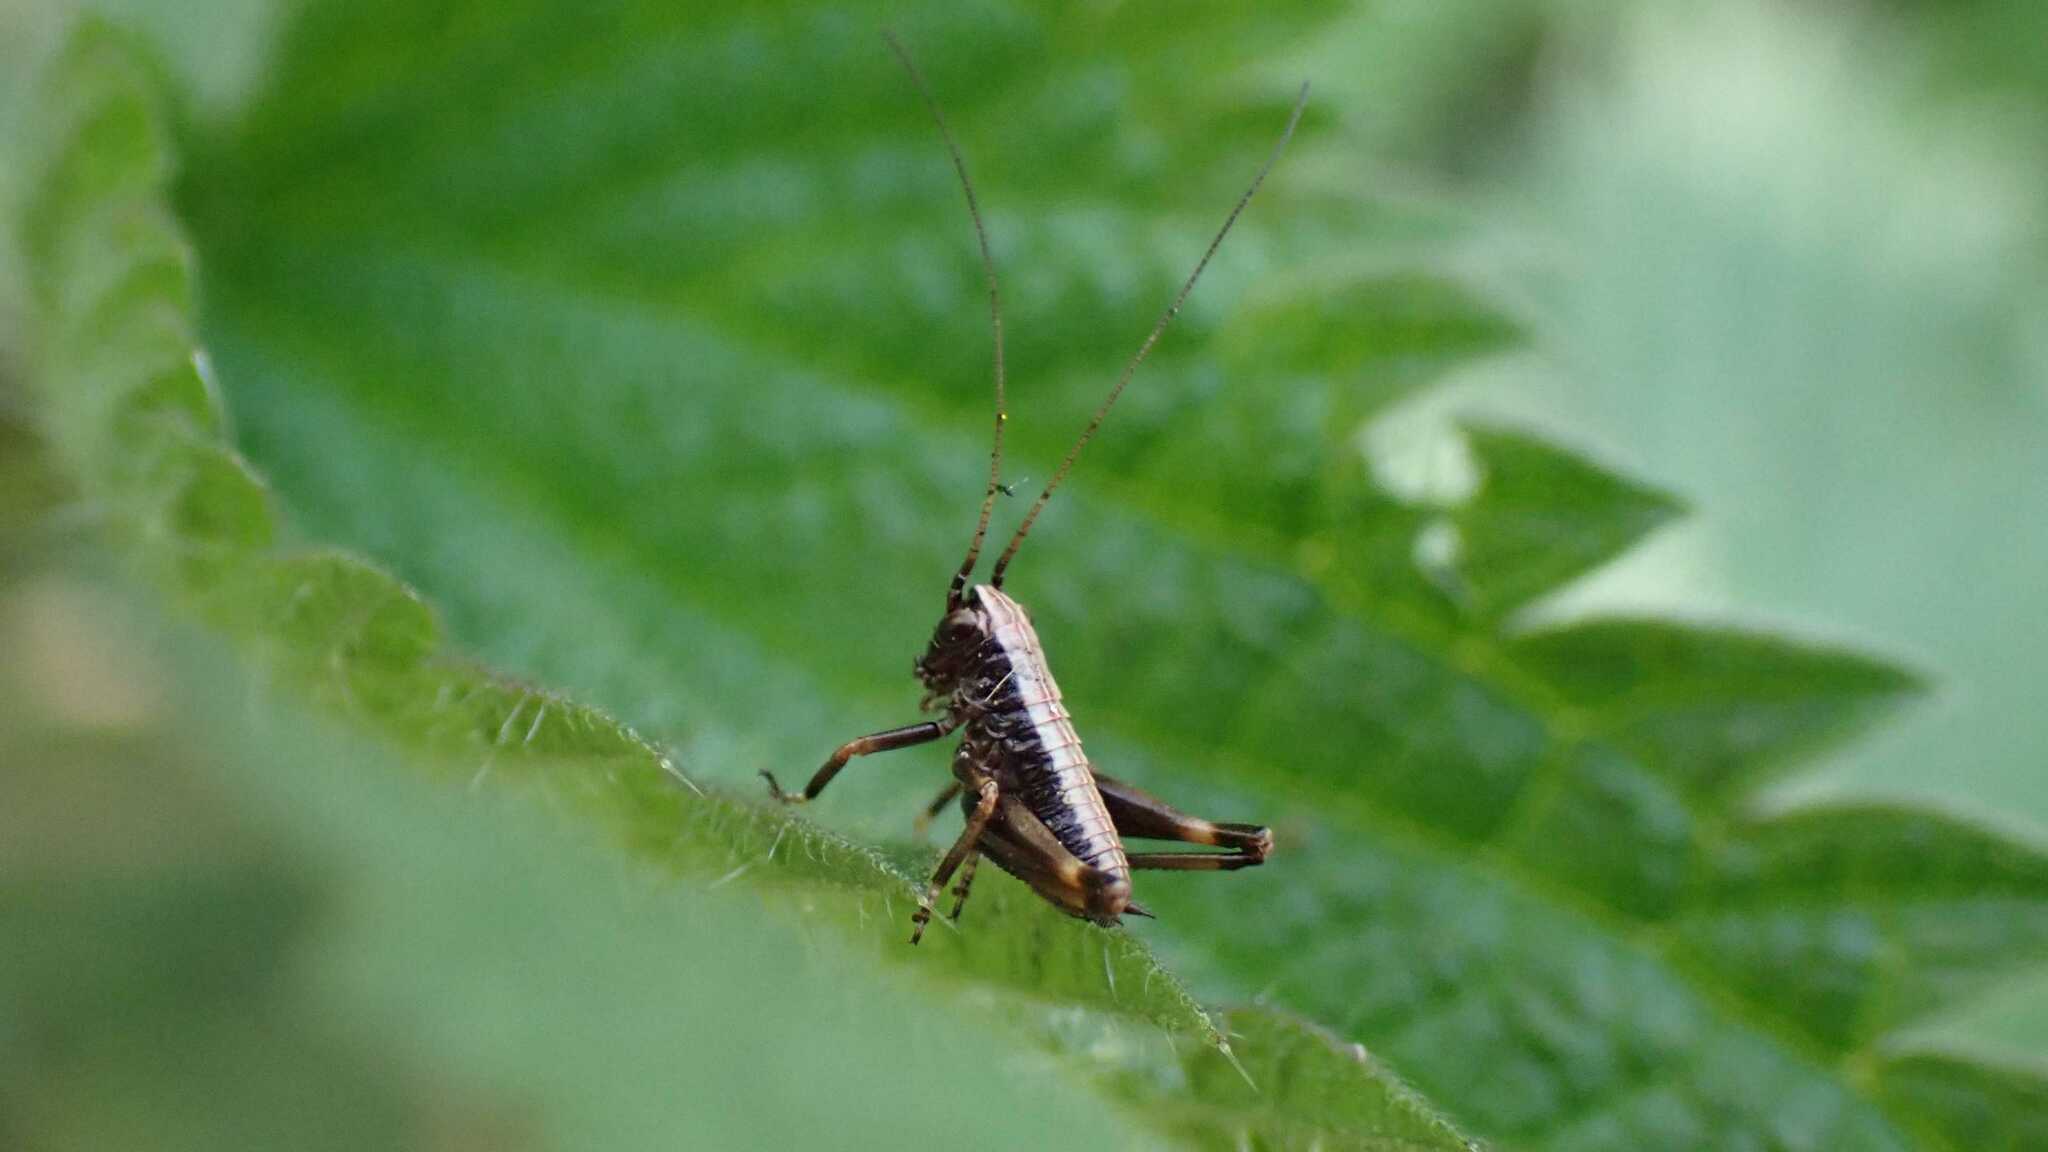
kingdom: Animalia
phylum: Arthropoda
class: Insecta
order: Orthoptera
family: Tettigoniidae
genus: Pholidoptera
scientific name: Pholidoptera griseoaptera
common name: Dark bush-cricket
